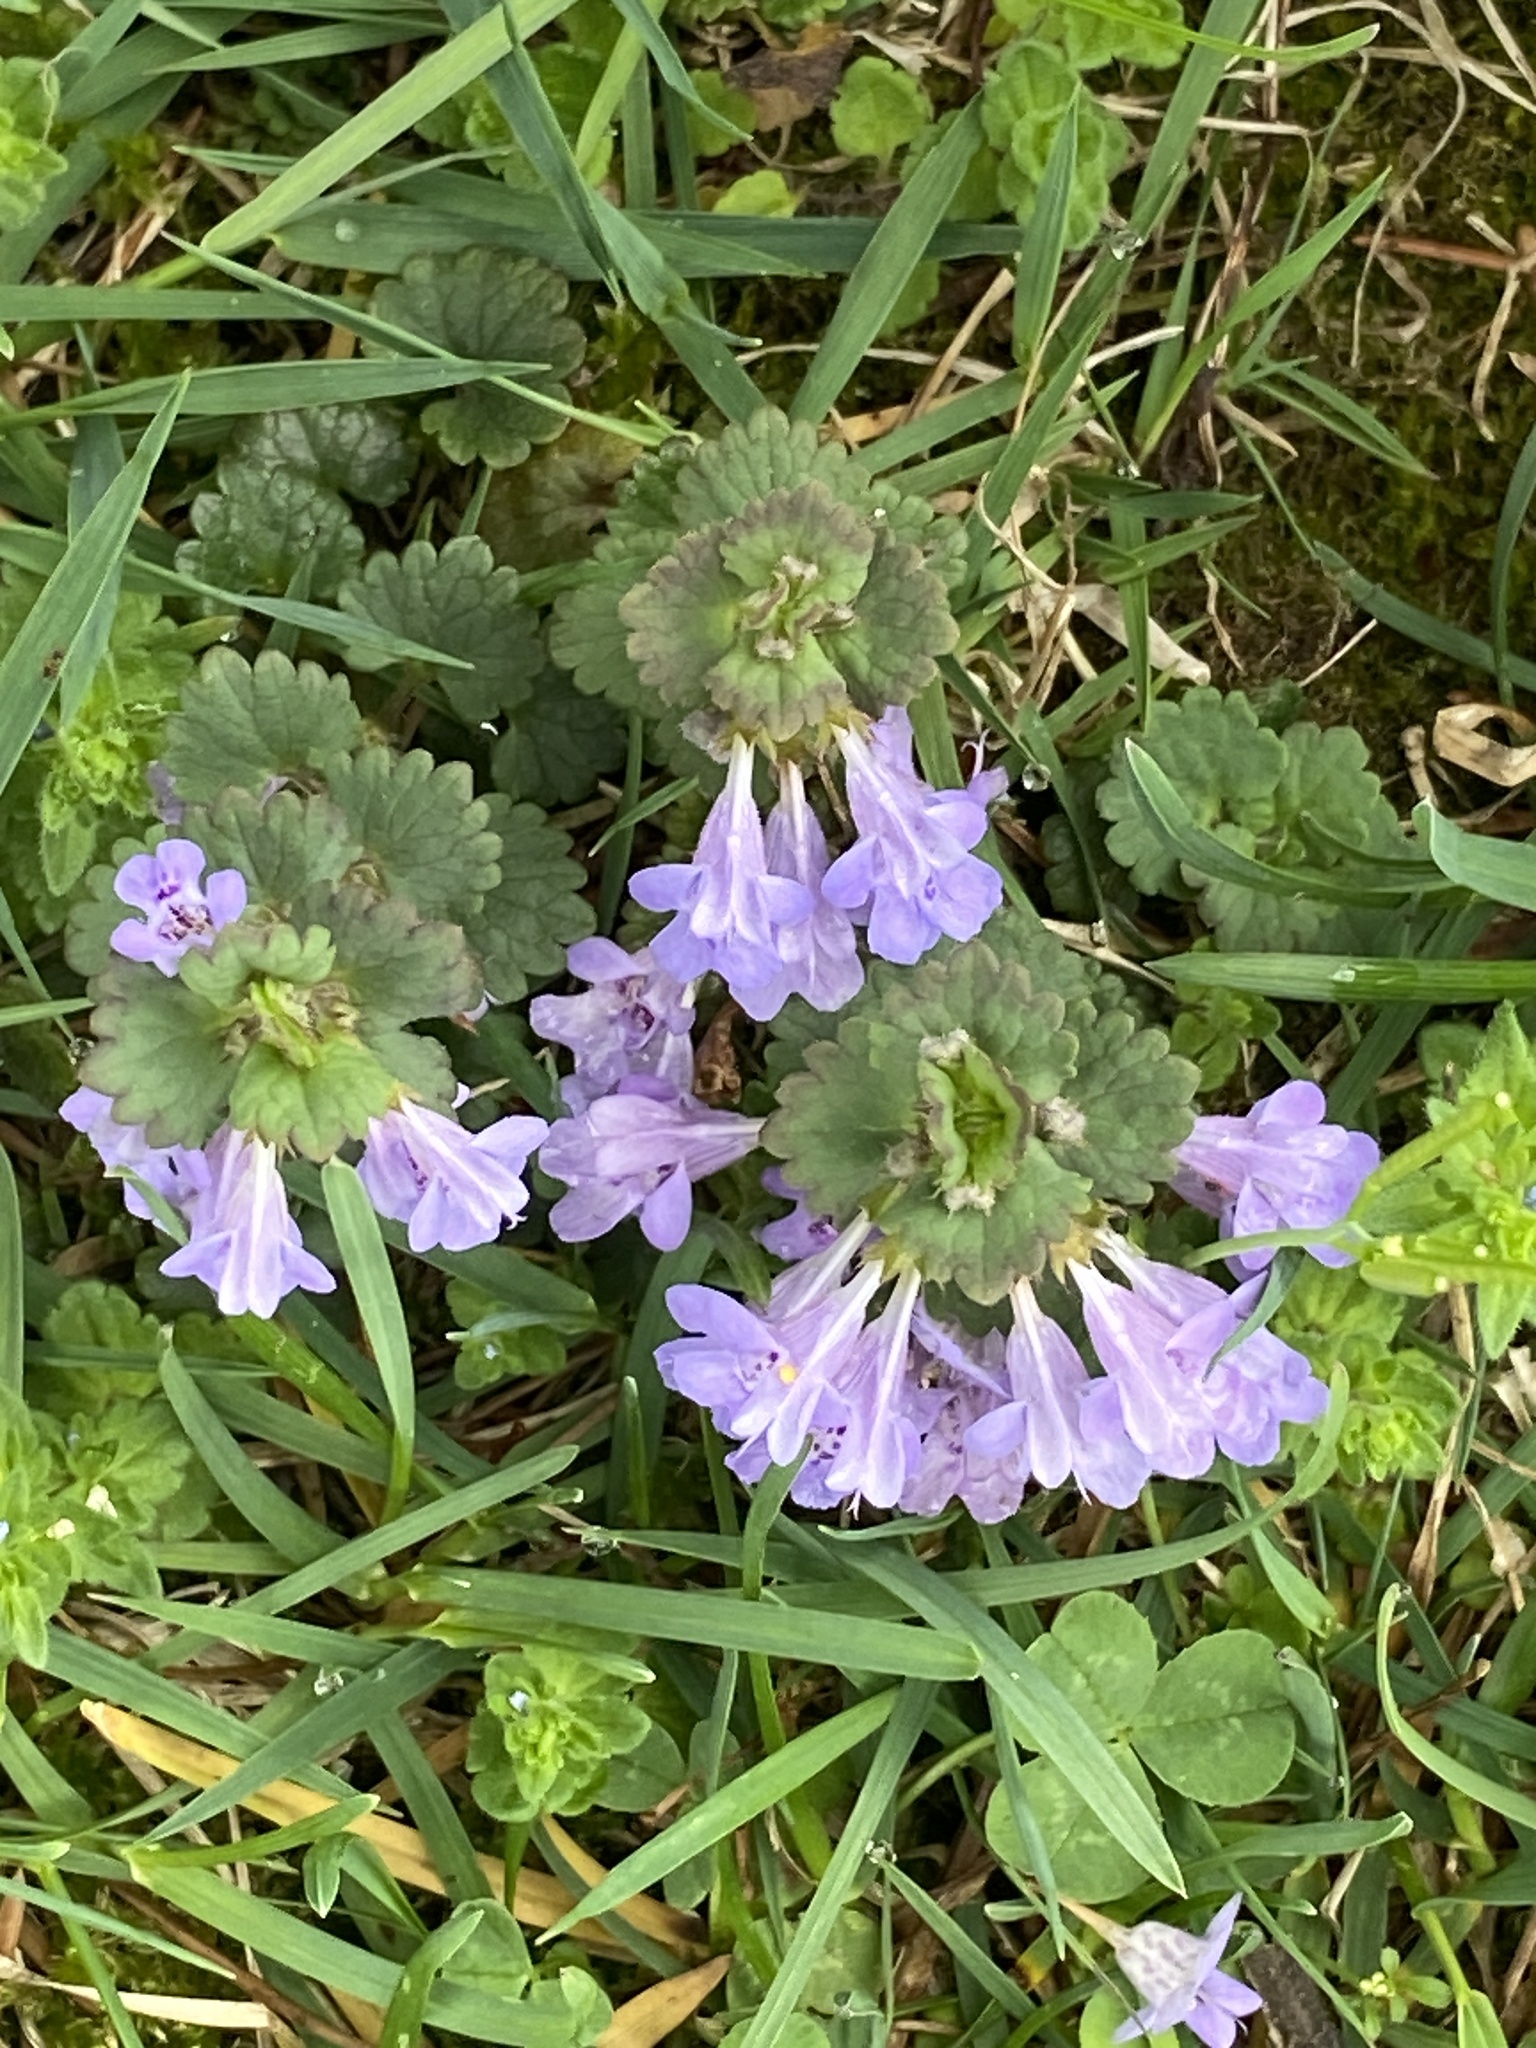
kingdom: Plantae
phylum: Tracheophyta
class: Magnoliopsida
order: Lamiales
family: Lamiaceae
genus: Glechoma
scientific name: Glechoma hederacea
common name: Ground ivy
